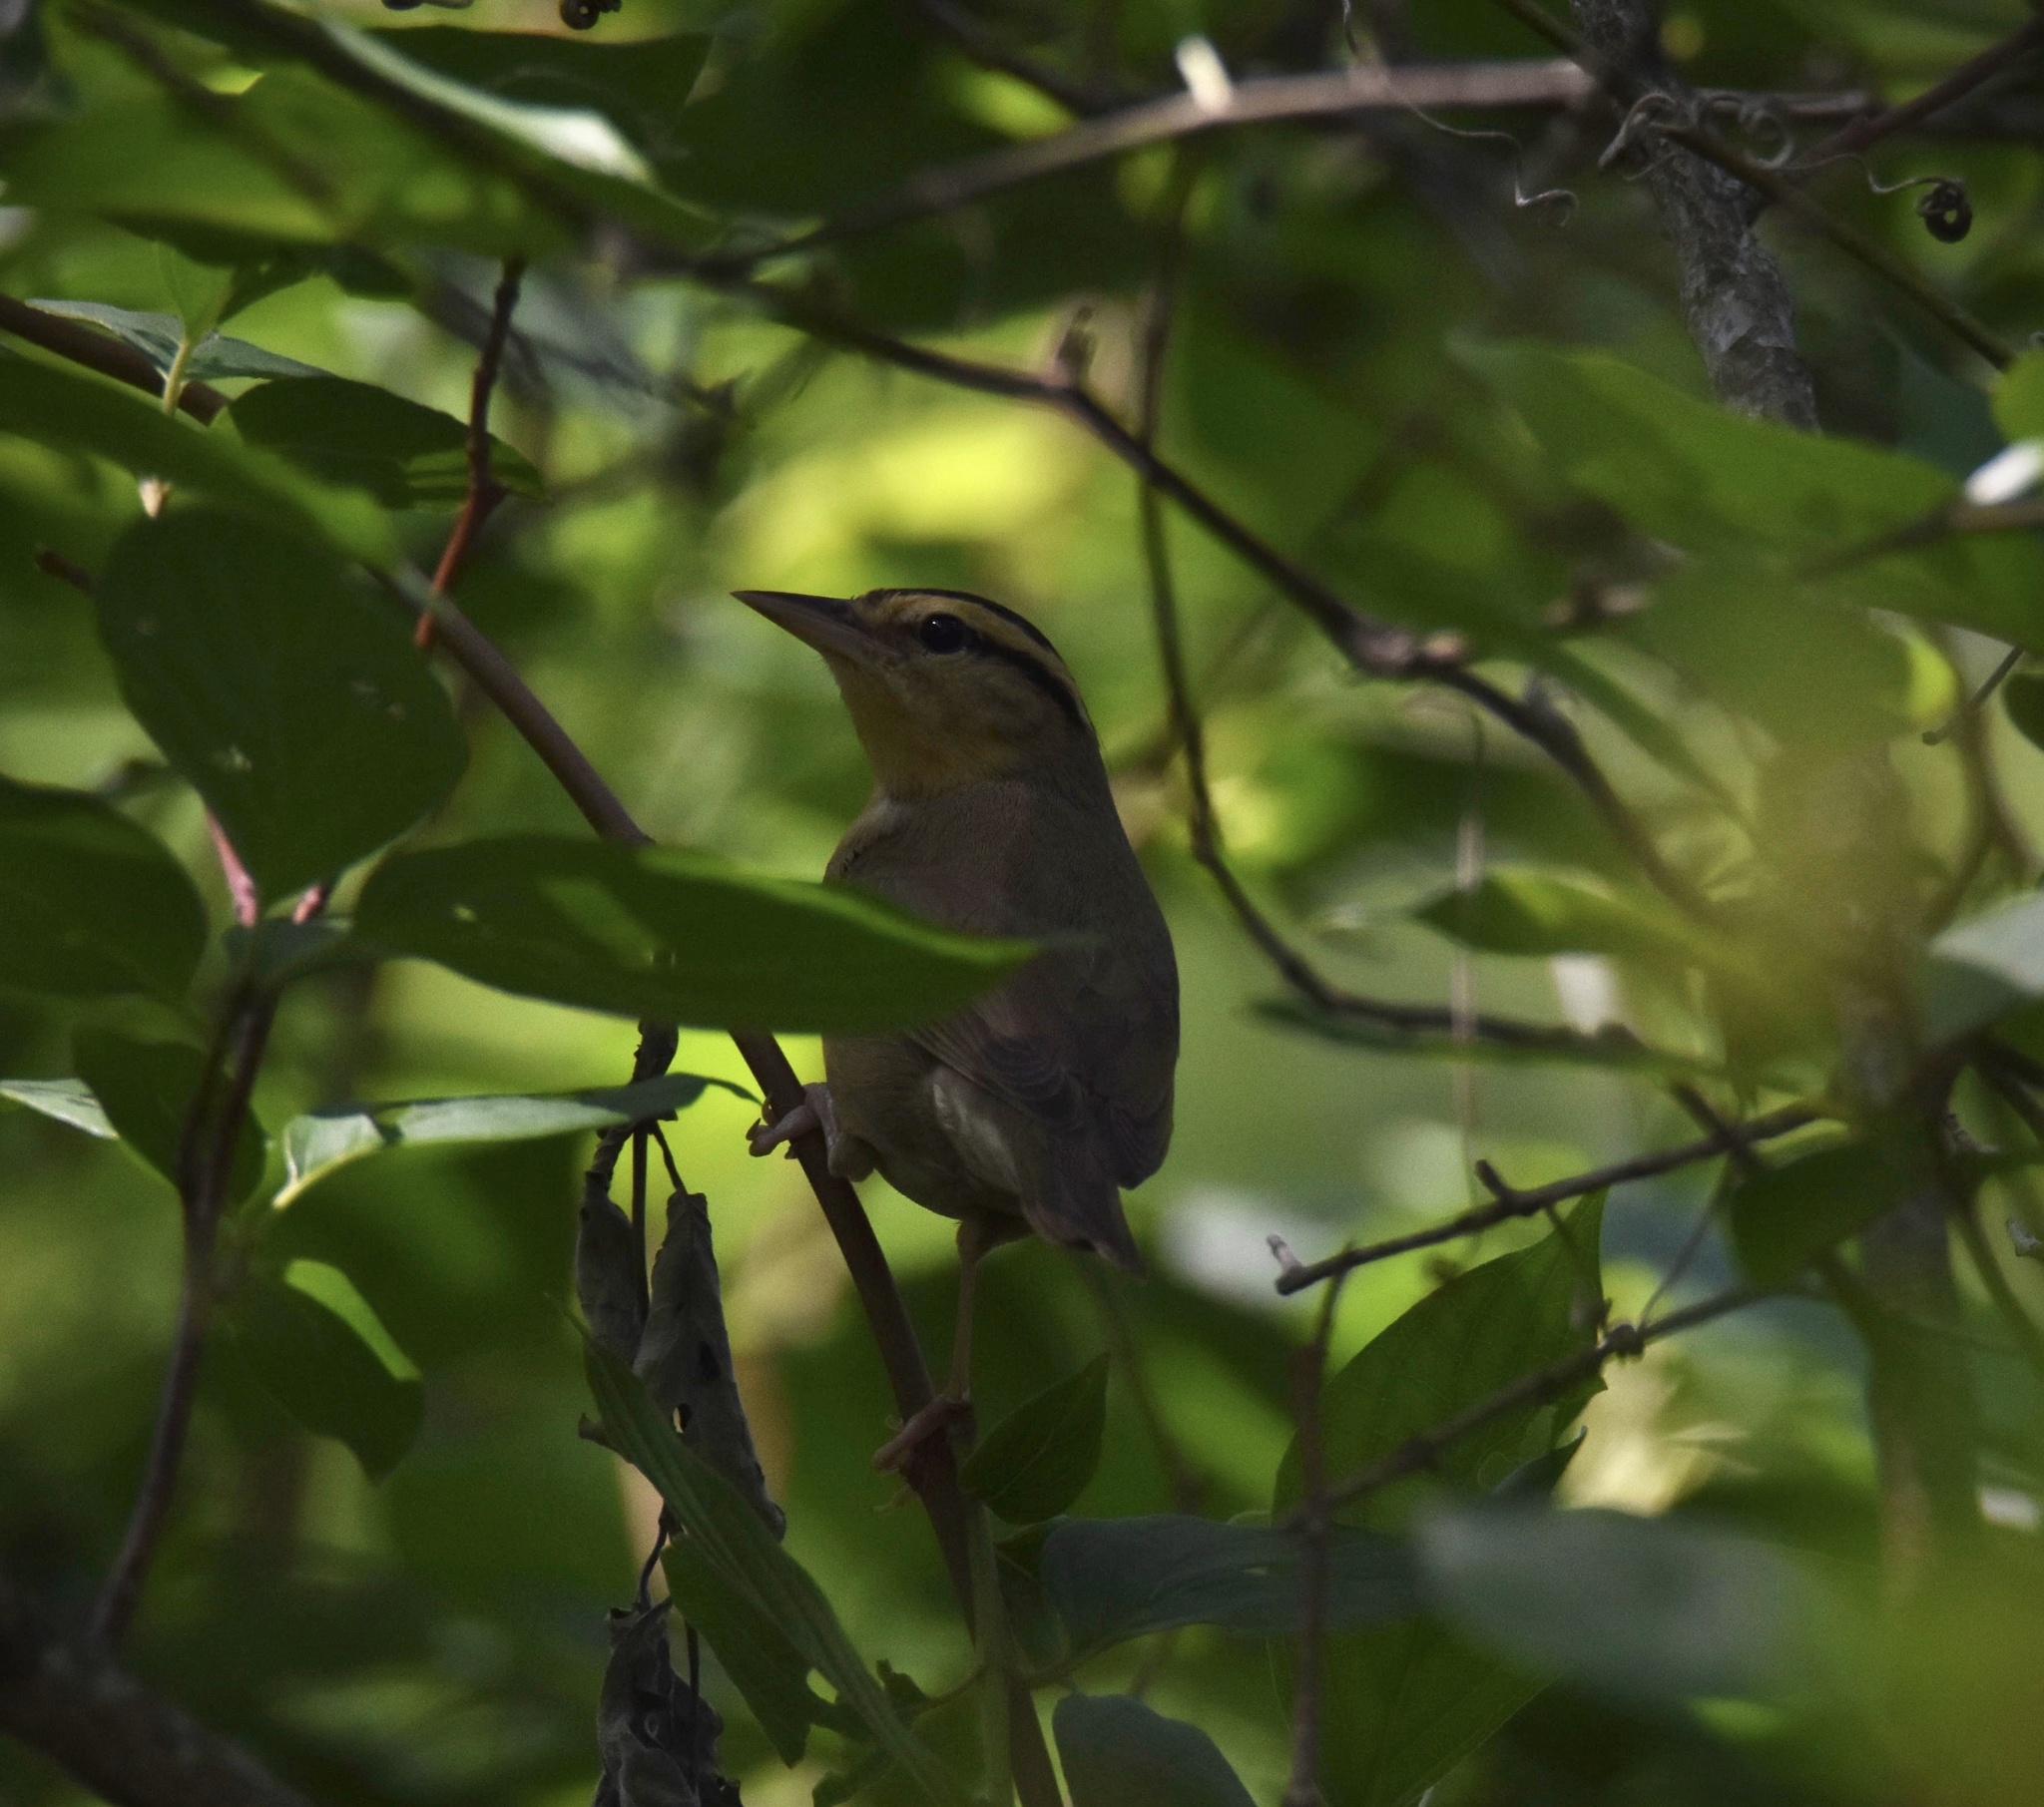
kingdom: Animalia
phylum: Chordata
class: Aves
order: Passeriformes
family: Parulidae
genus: Helmitheros
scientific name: Helmitheros vermivorum
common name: Worm-eating warbler
